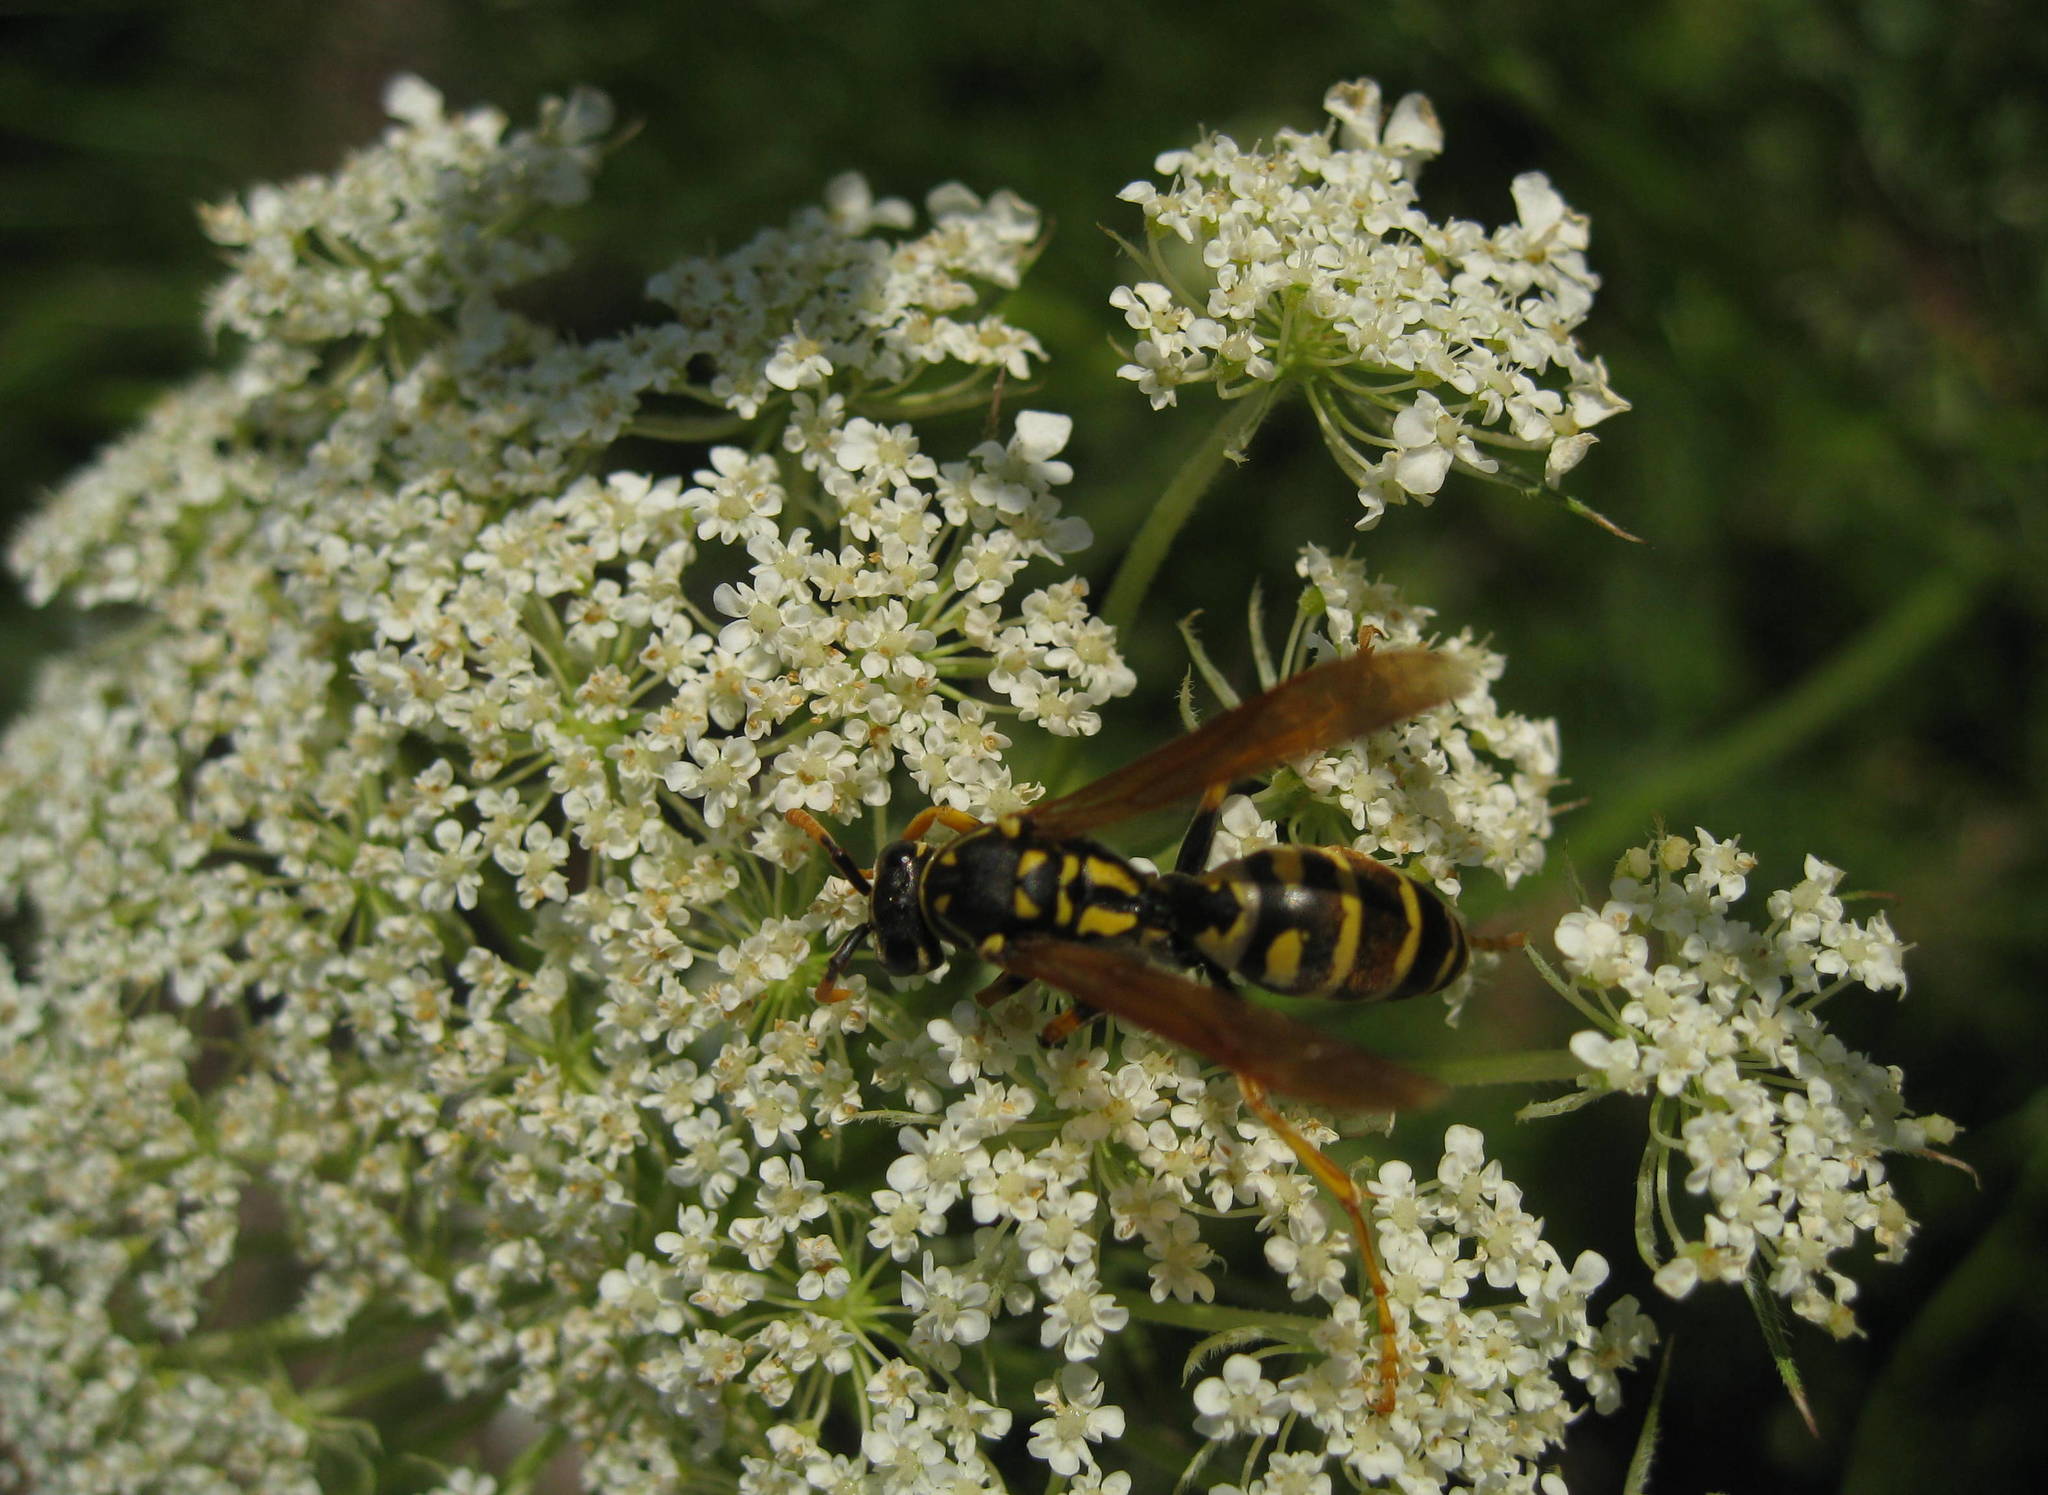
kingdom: Animalia
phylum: Arthropoda
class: Insecta
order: Hymenoptera
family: Eumenidae
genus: Polistes
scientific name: Polistes dominula
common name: Paper wasp
